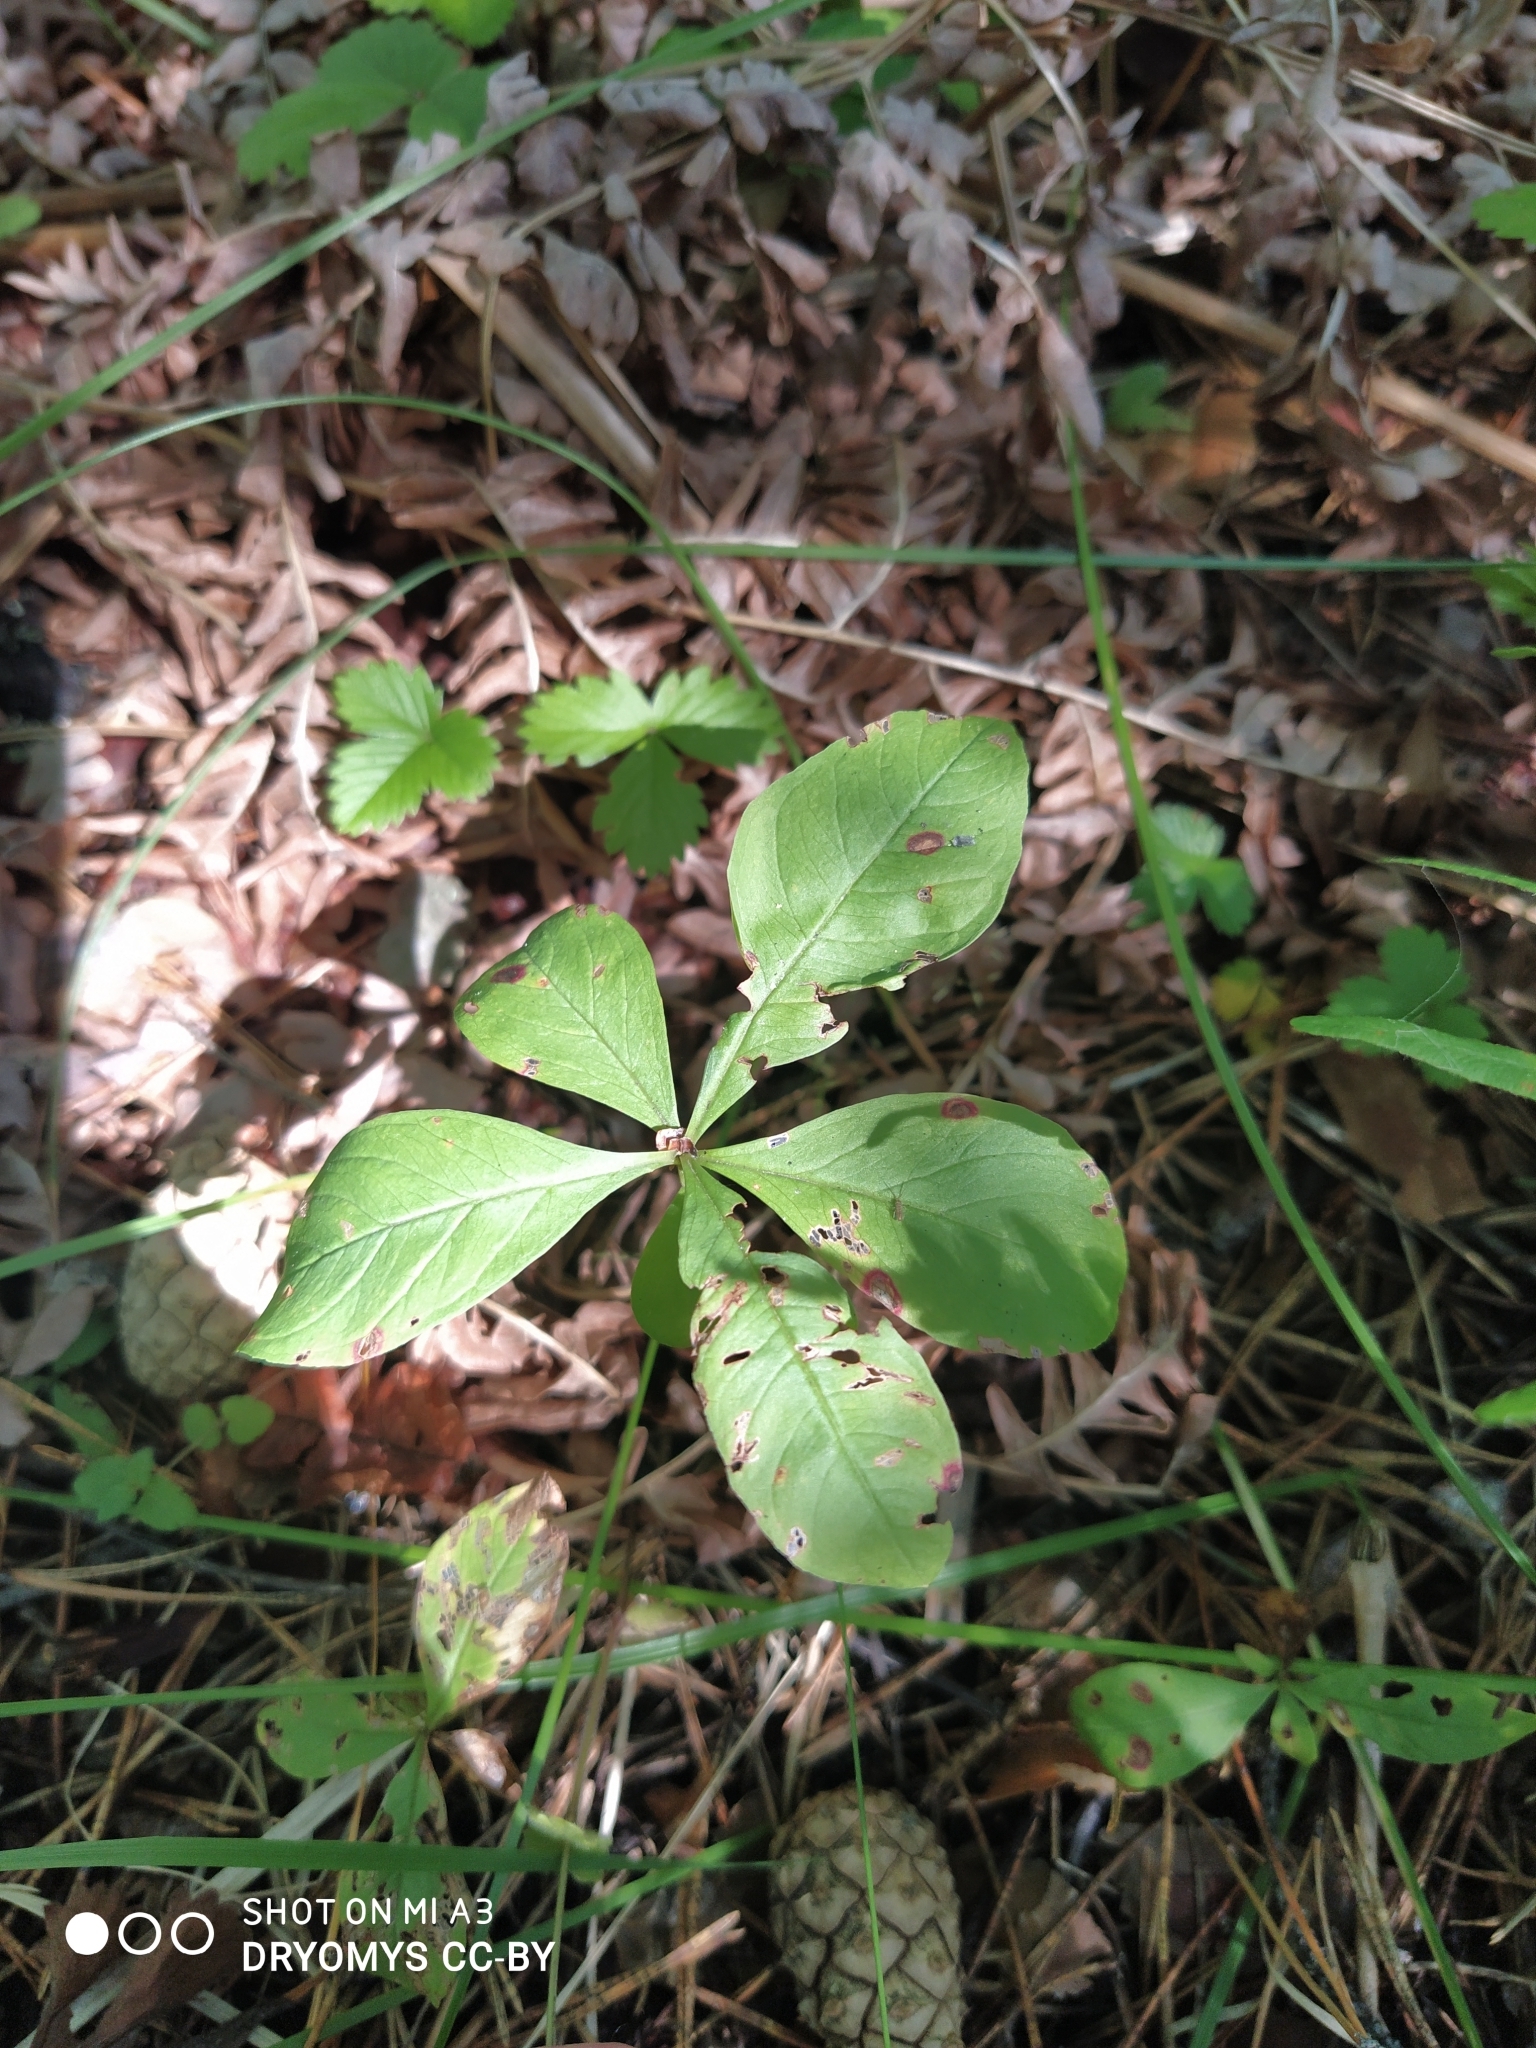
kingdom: Plantae
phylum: Tracheophyta
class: Magnoliopsida
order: Ericales
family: Primulaceae
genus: Lysimachia
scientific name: Lysimachia europaea
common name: Arctic starflower
